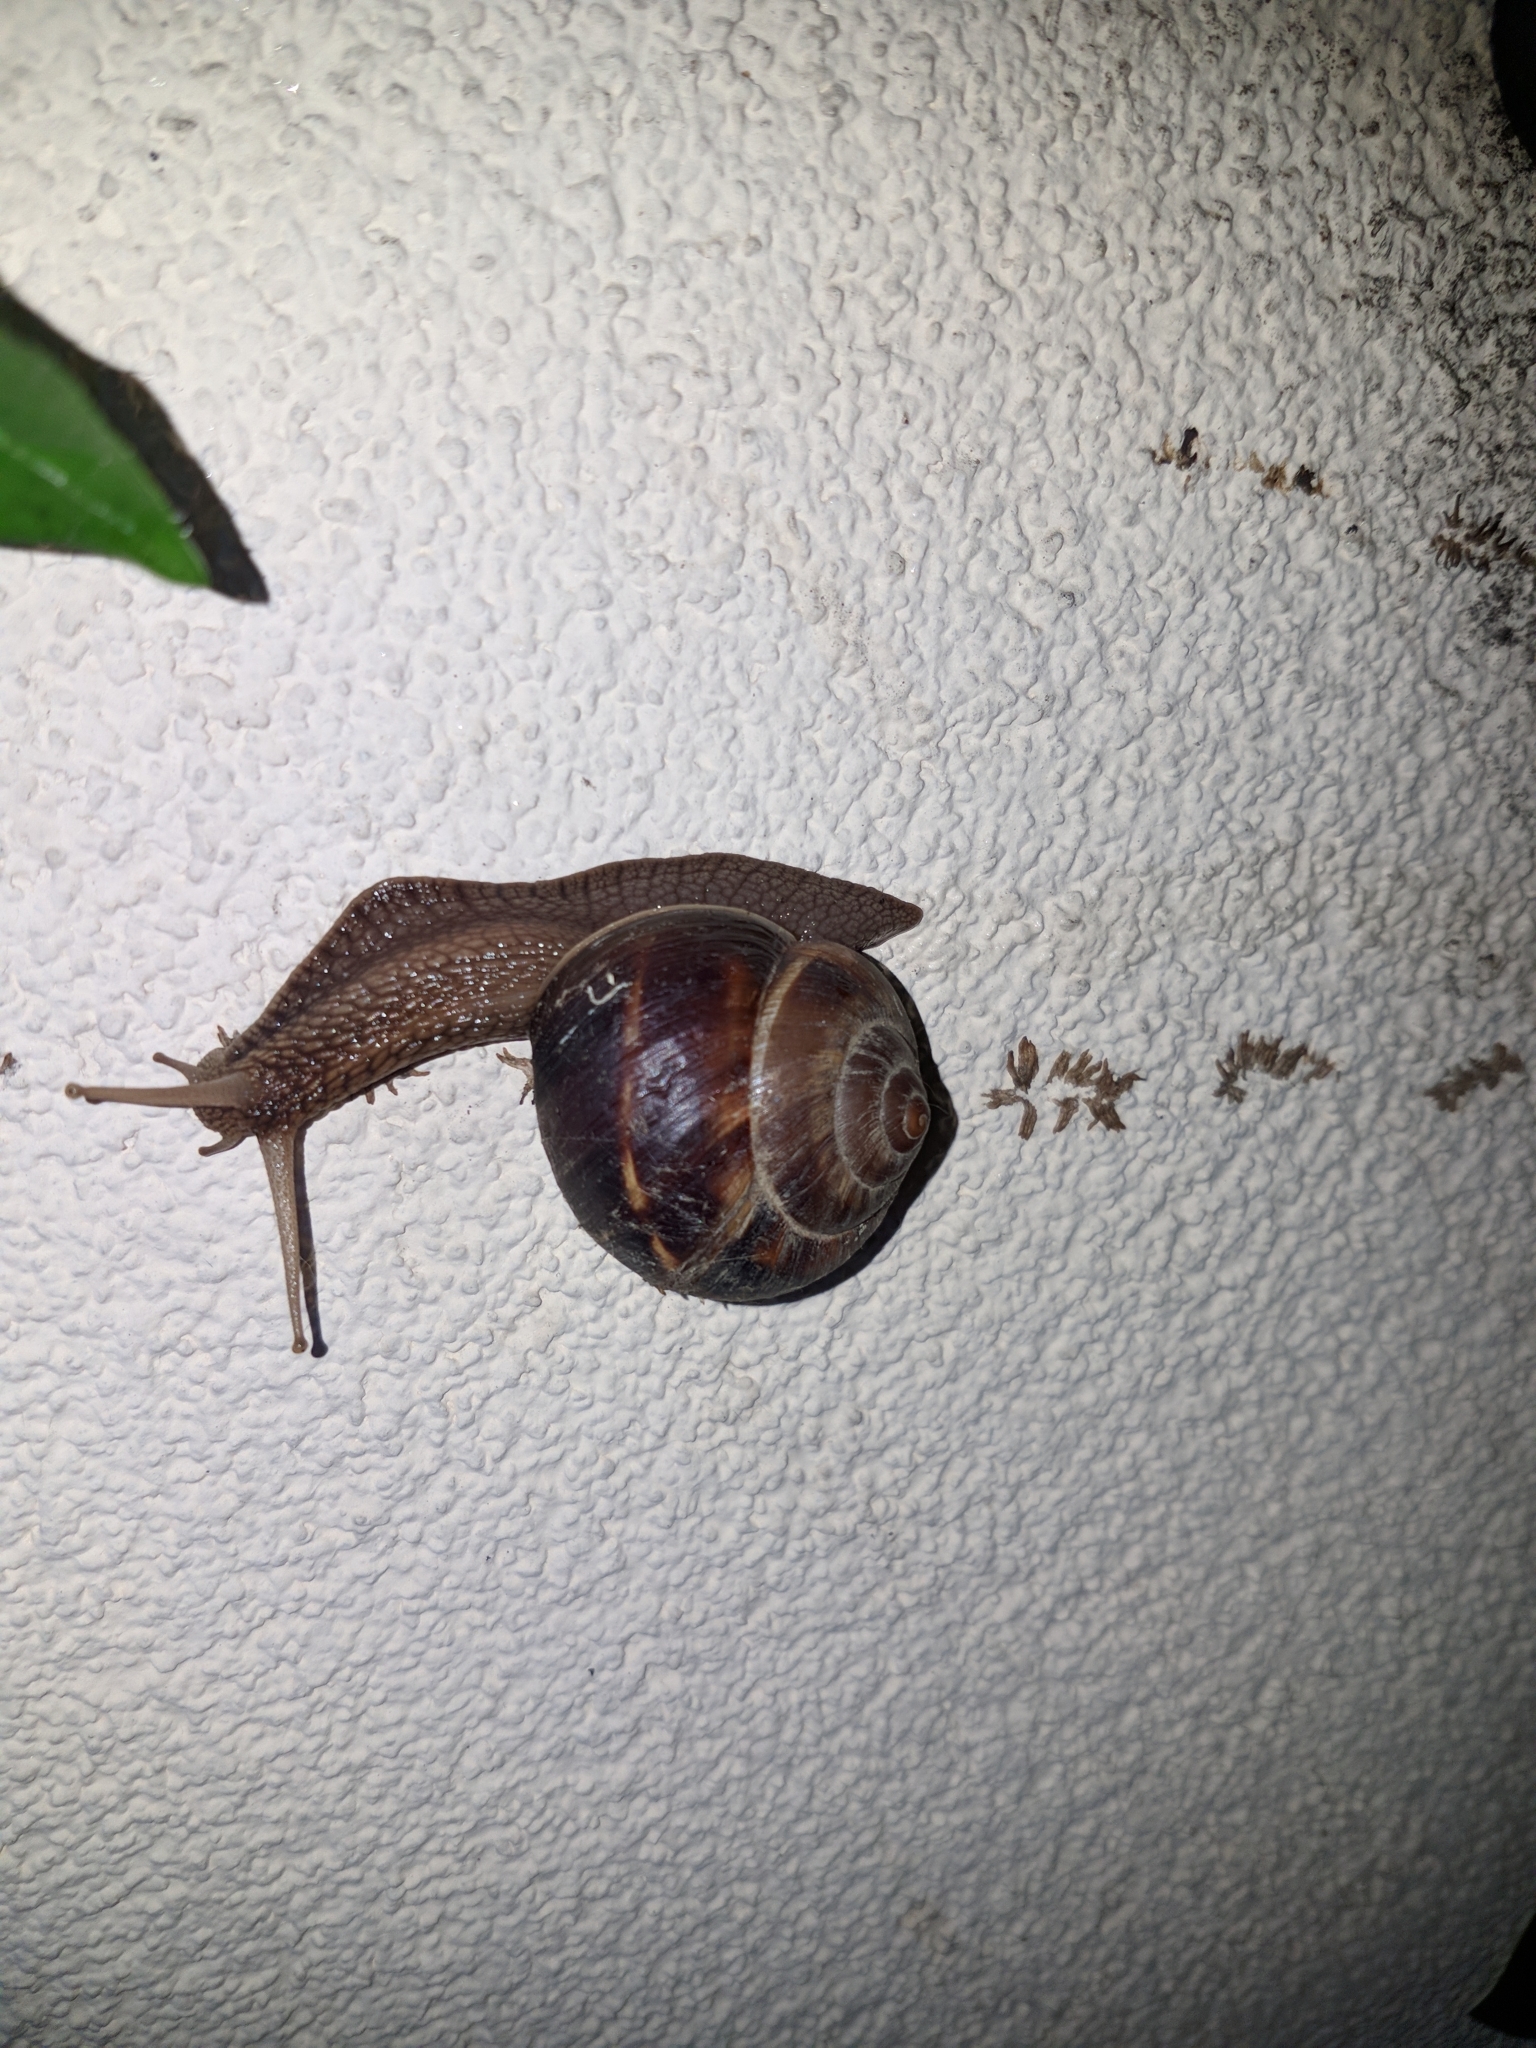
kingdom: Animalia
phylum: Mollusca
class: Gastropoda
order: Stylommatophora
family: Helicidae
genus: Helix
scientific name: Helix lucorum
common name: Turkish snail
